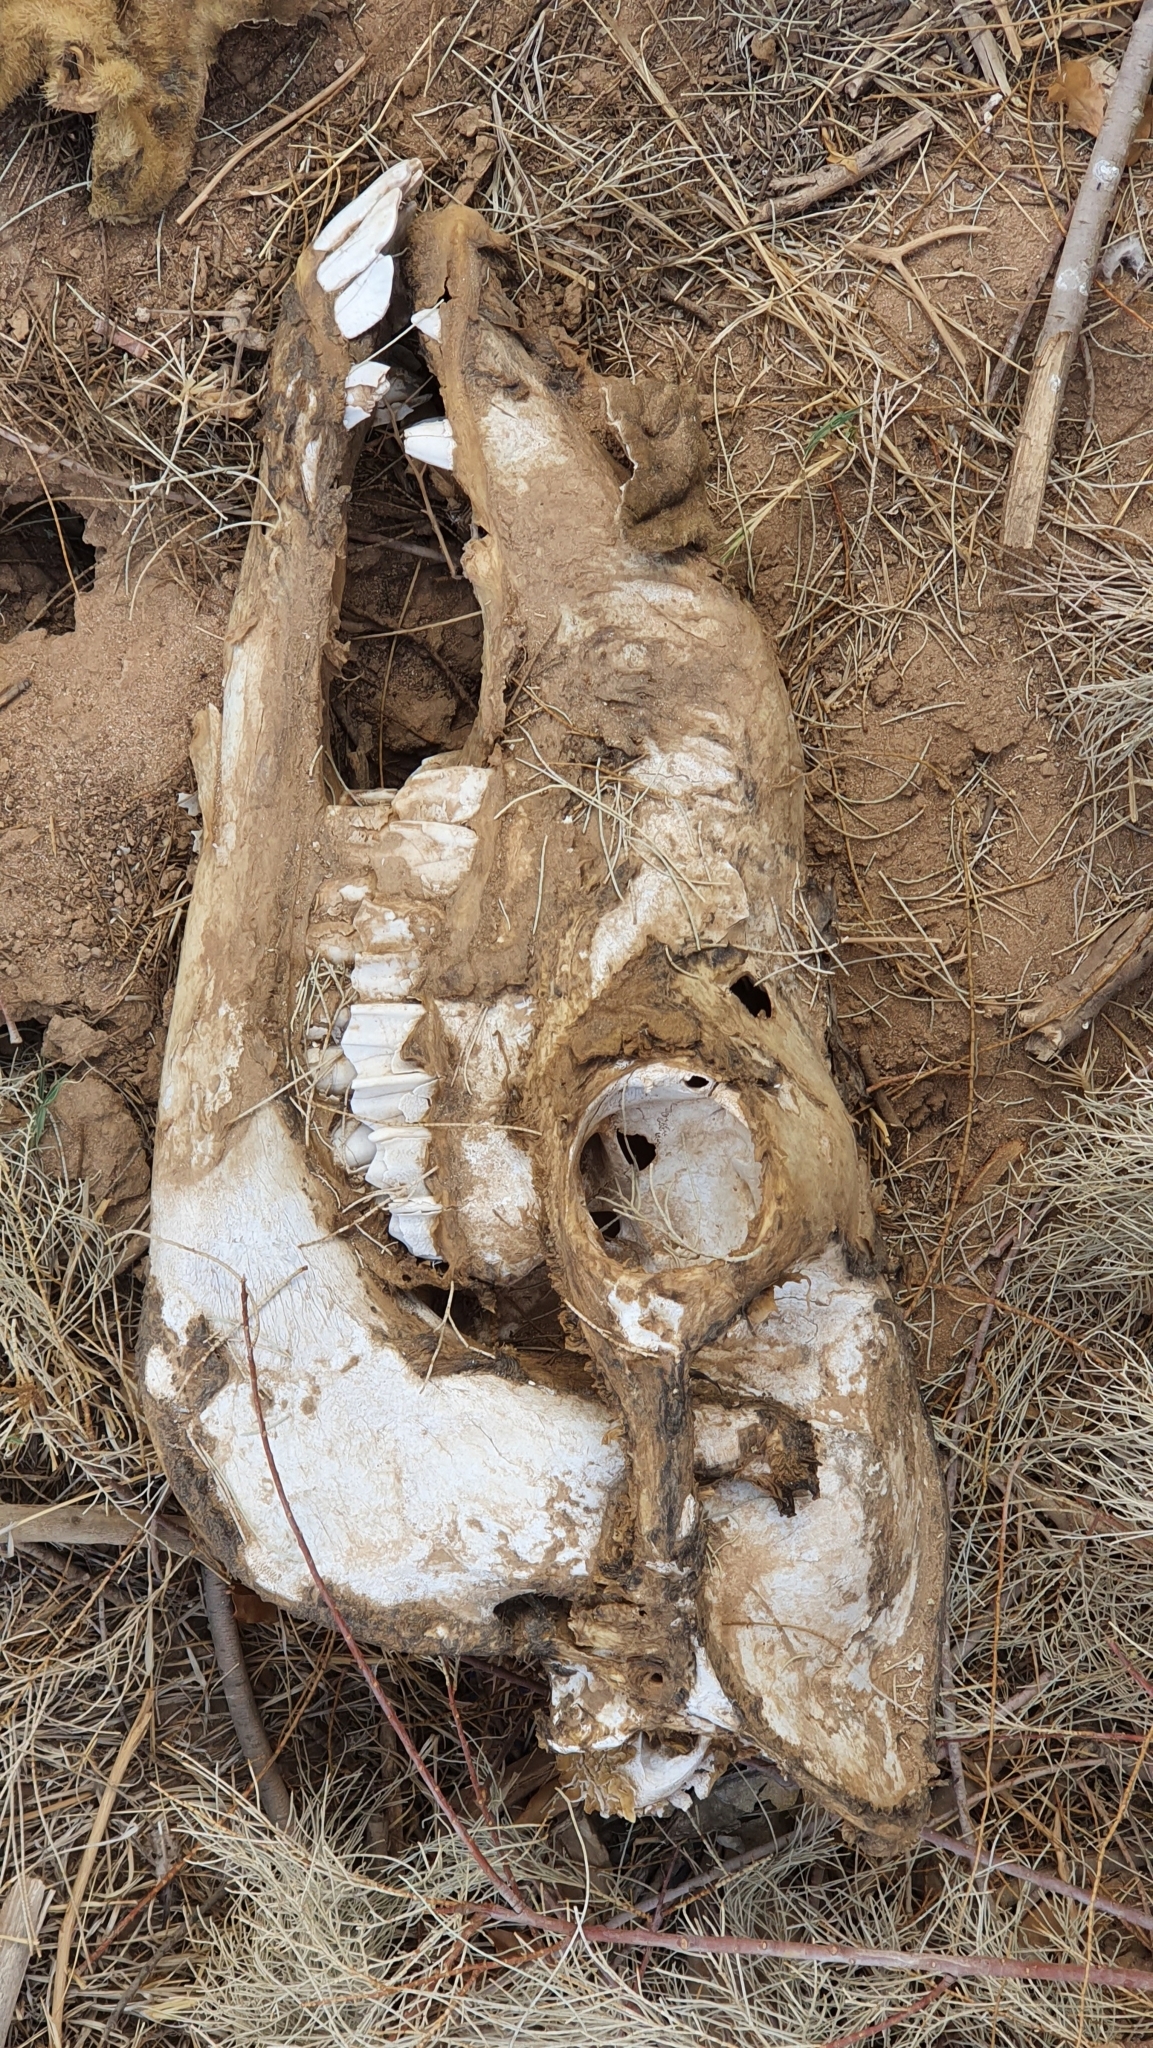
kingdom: Animalia
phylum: Chordata
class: Mammalia
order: Artiodactyla
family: Camelidae
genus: Camelus
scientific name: Camelus dromedarius
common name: One-humped camel
